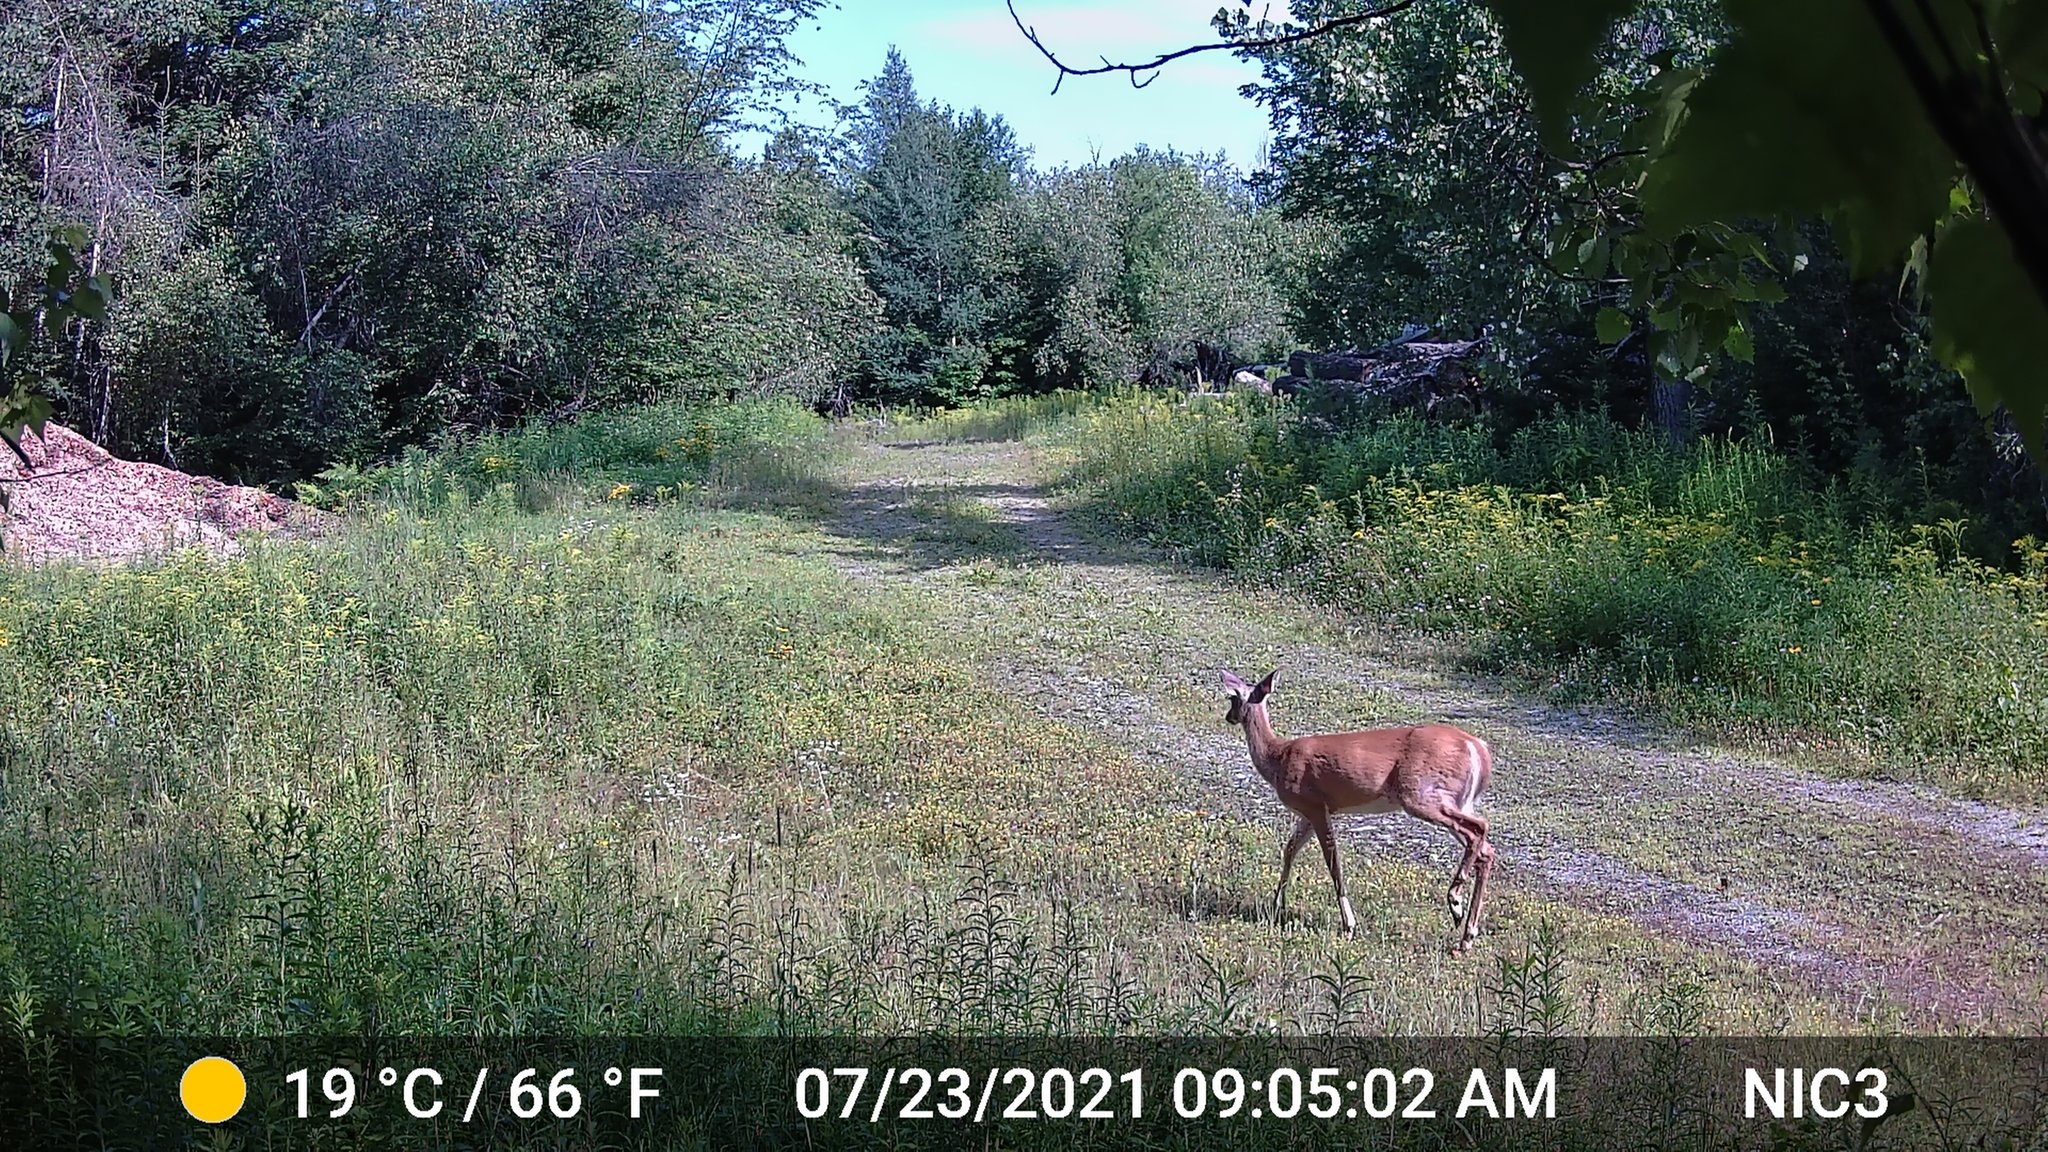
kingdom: Animalia
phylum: Chordata
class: Mammalia
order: Artiodactyla
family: Cervidae
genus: Odocoileus
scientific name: Odocoileus virginianus
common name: White-tailed deer
